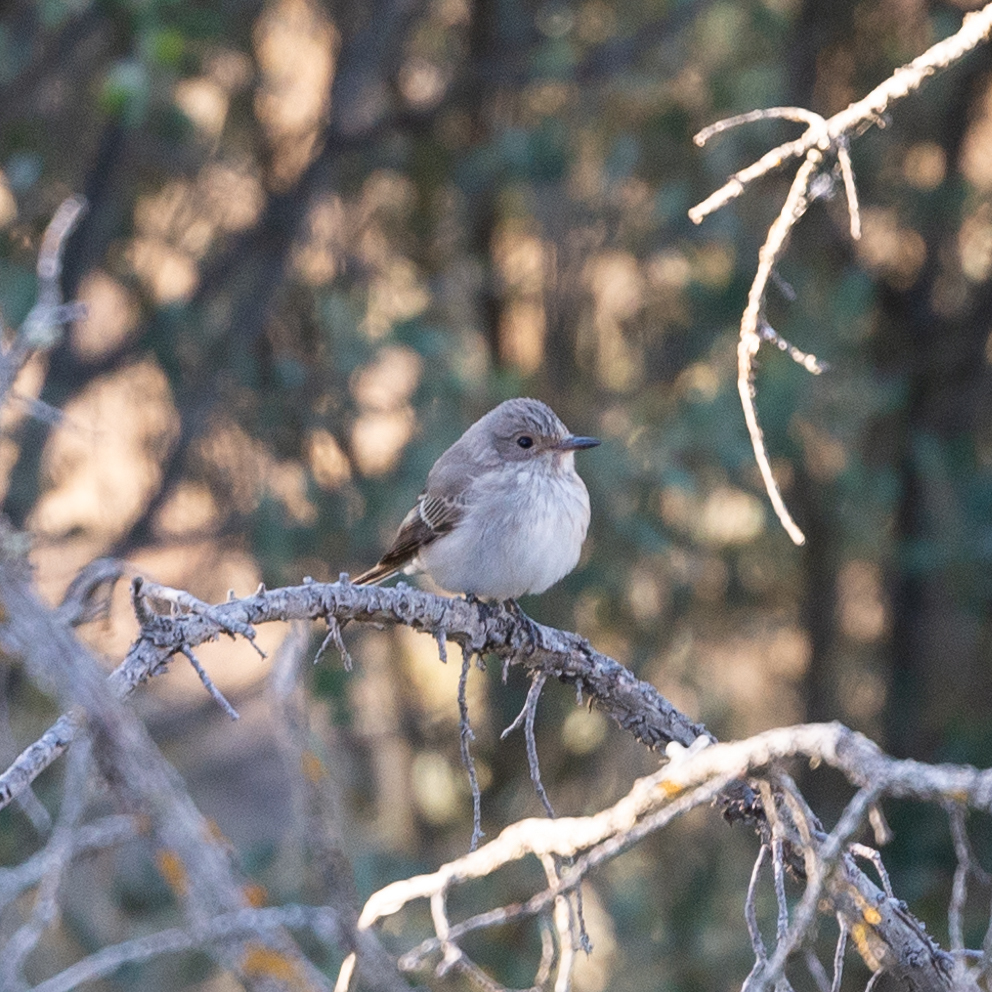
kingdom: Animalia
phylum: Chordata
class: Aves
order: Passeriformes
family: Muscicapidae
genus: Muscicapa
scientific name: Muscicapa striata
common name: Spotted flycatcher
